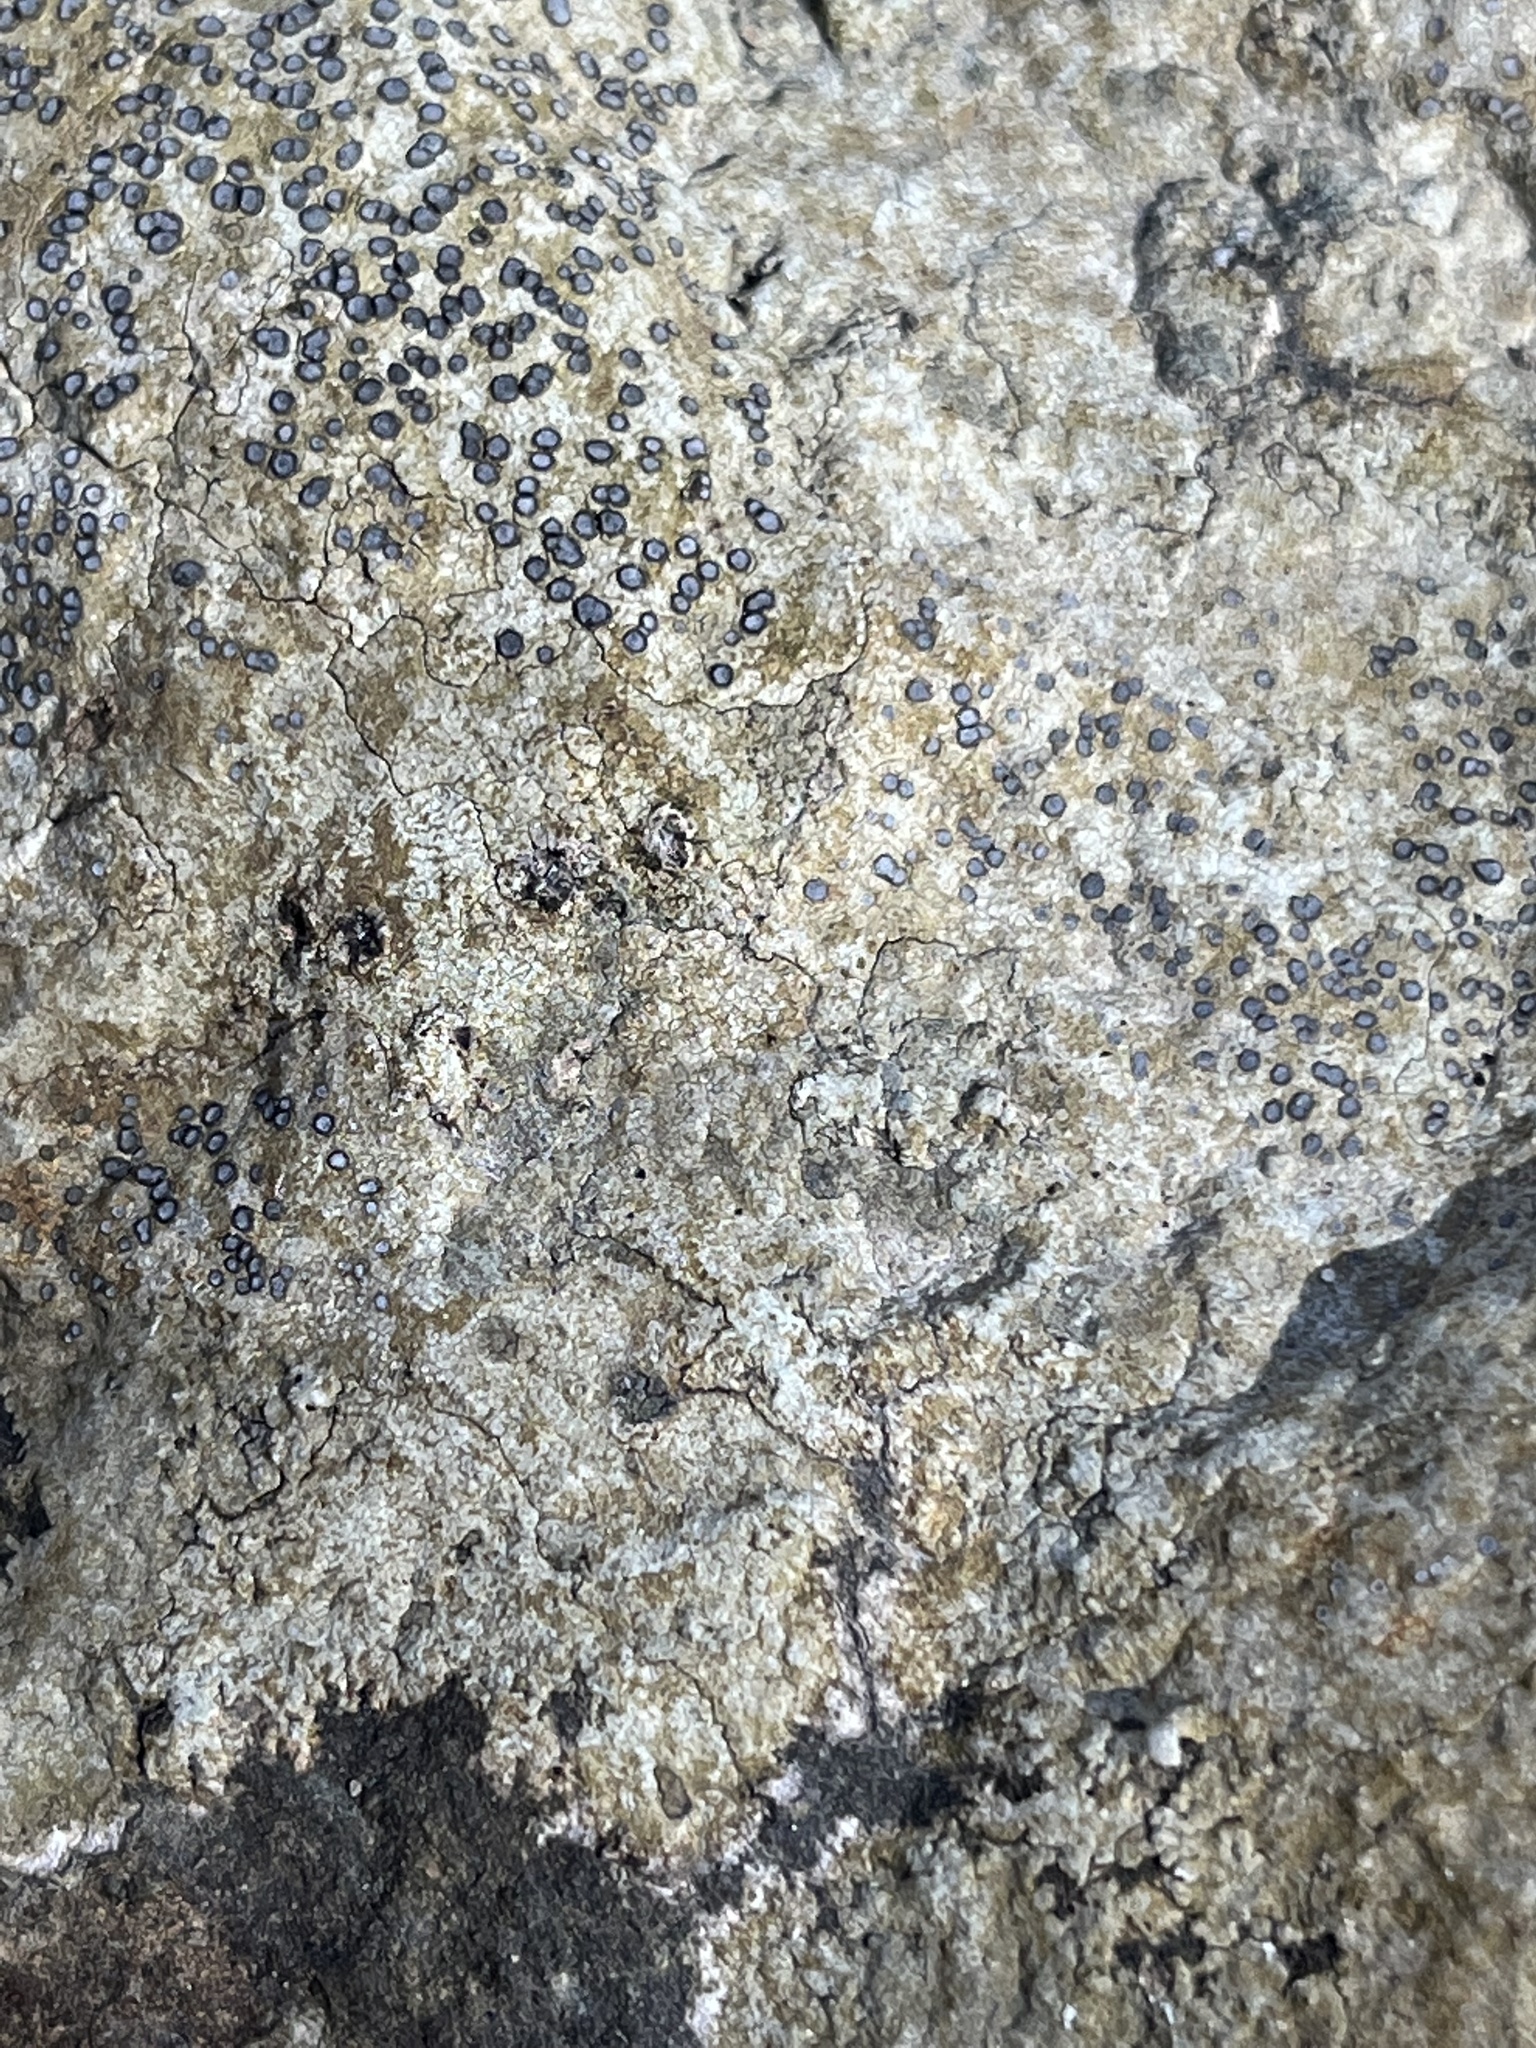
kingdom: Fungi
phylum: Ascomycota
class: Lecanoromycetes
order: Lecideales
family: Lecideaceae
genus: Porpidia
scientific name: Porpidia albocaerulescens
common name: Smokey-eyed boulder lichen
